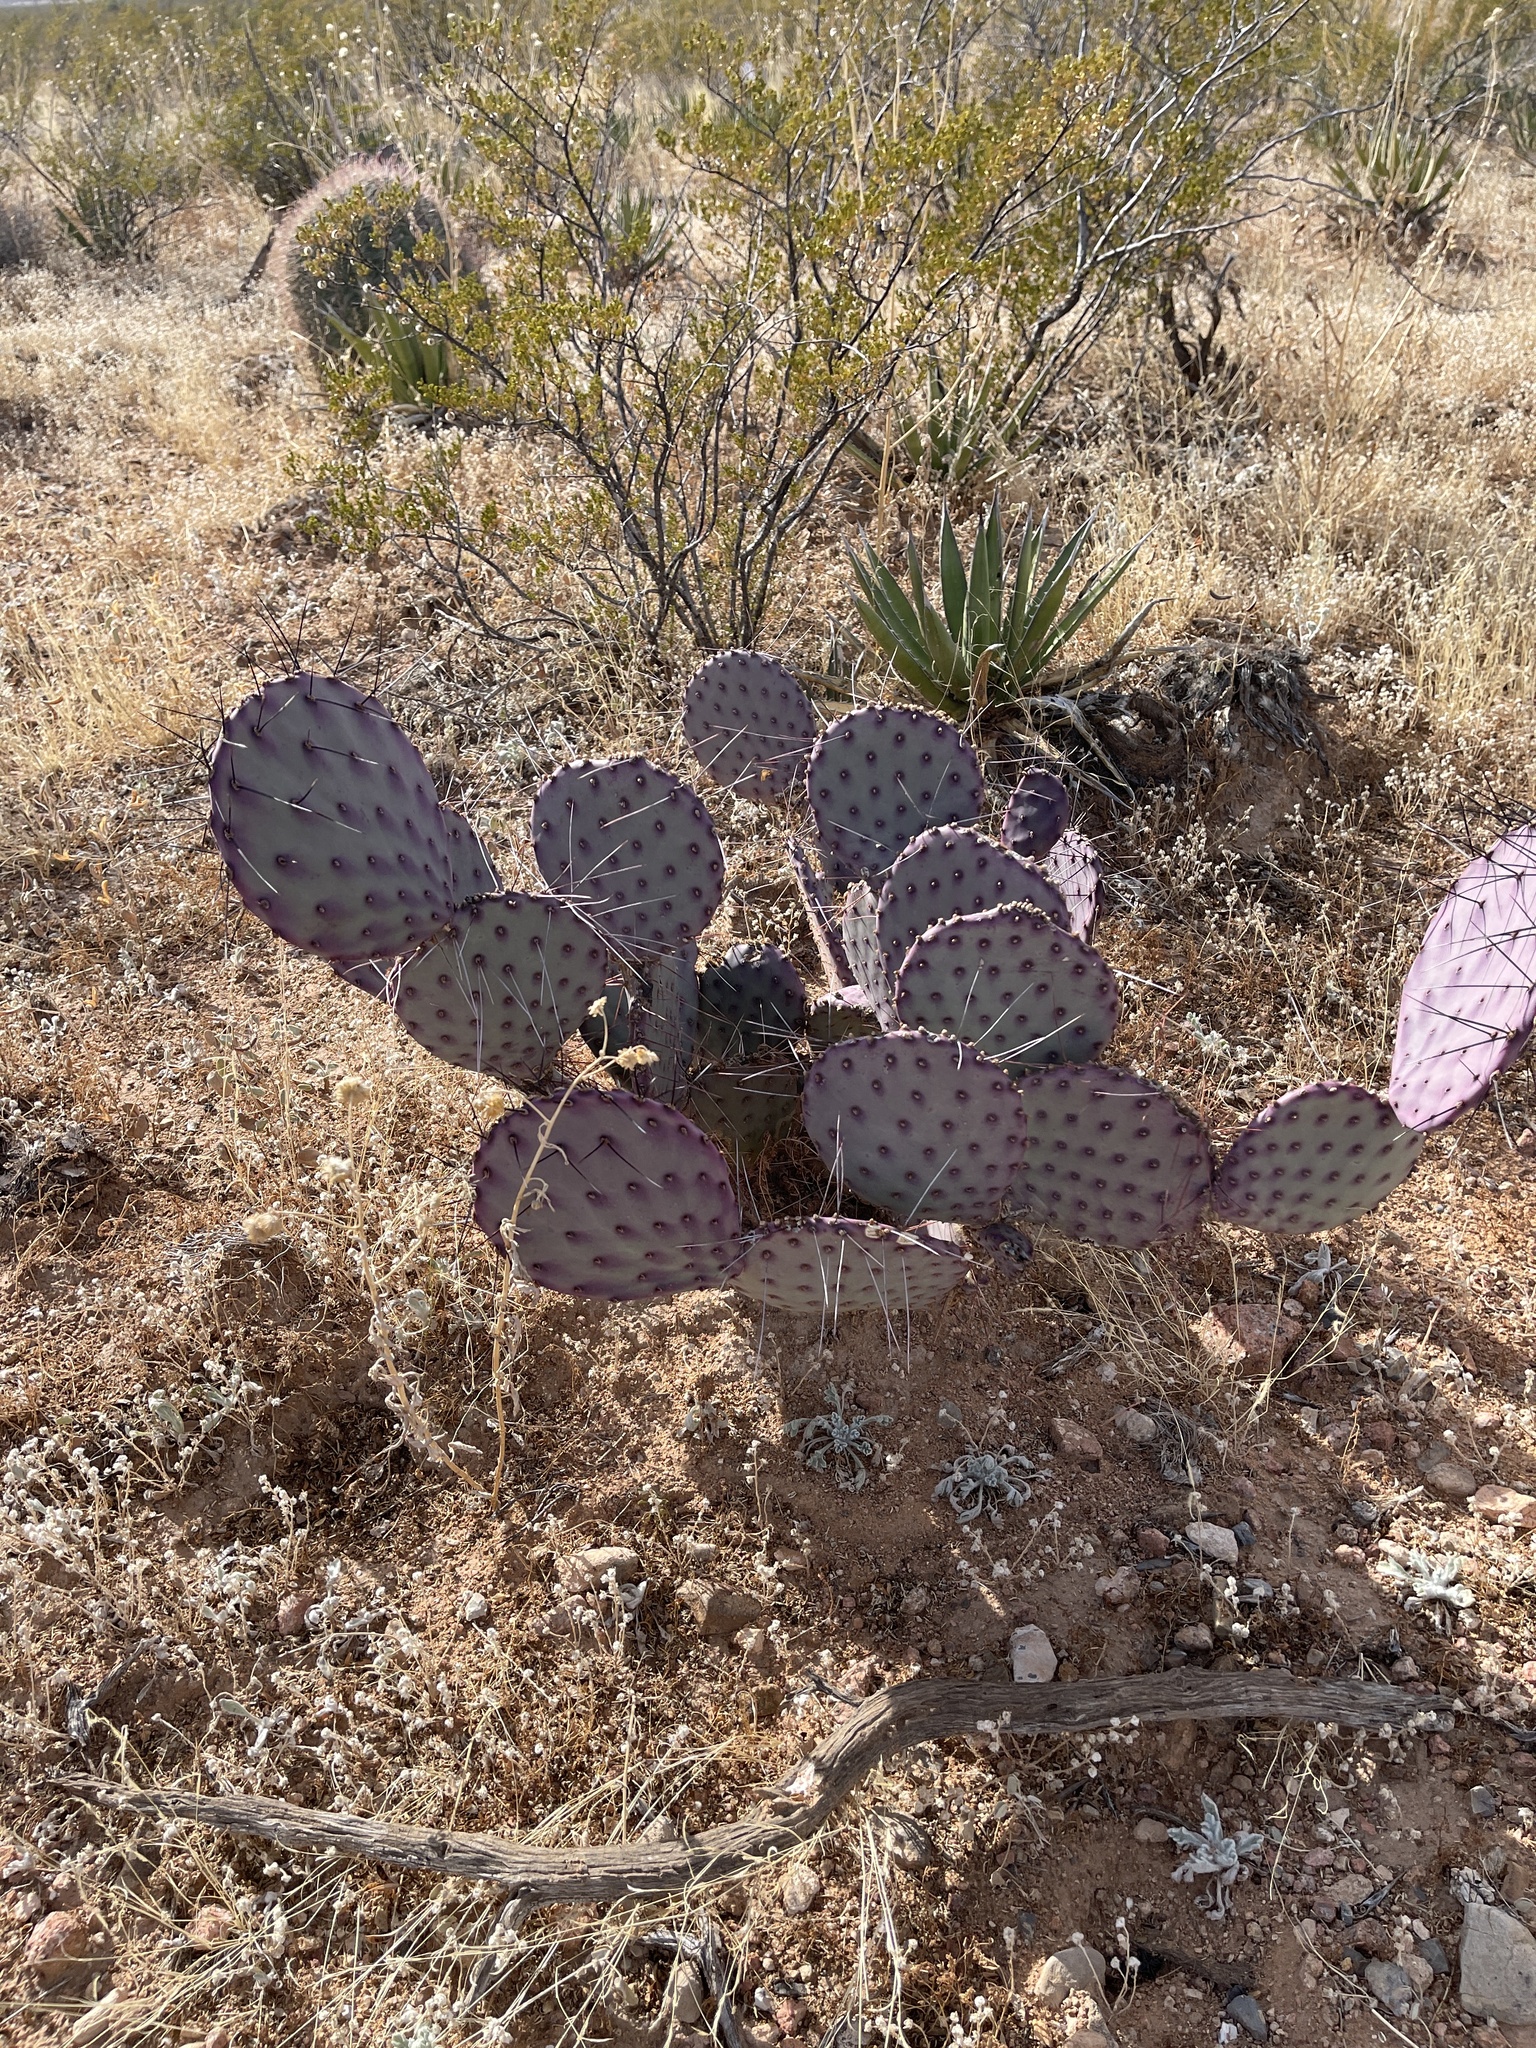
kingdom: Plantae
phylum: Tracheophyta
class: Magnoliopsida
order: Caryophyllales
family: Cactaceae
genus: Opuntia
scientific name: Opuntia macrocentra
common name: Purple prickly-pear
